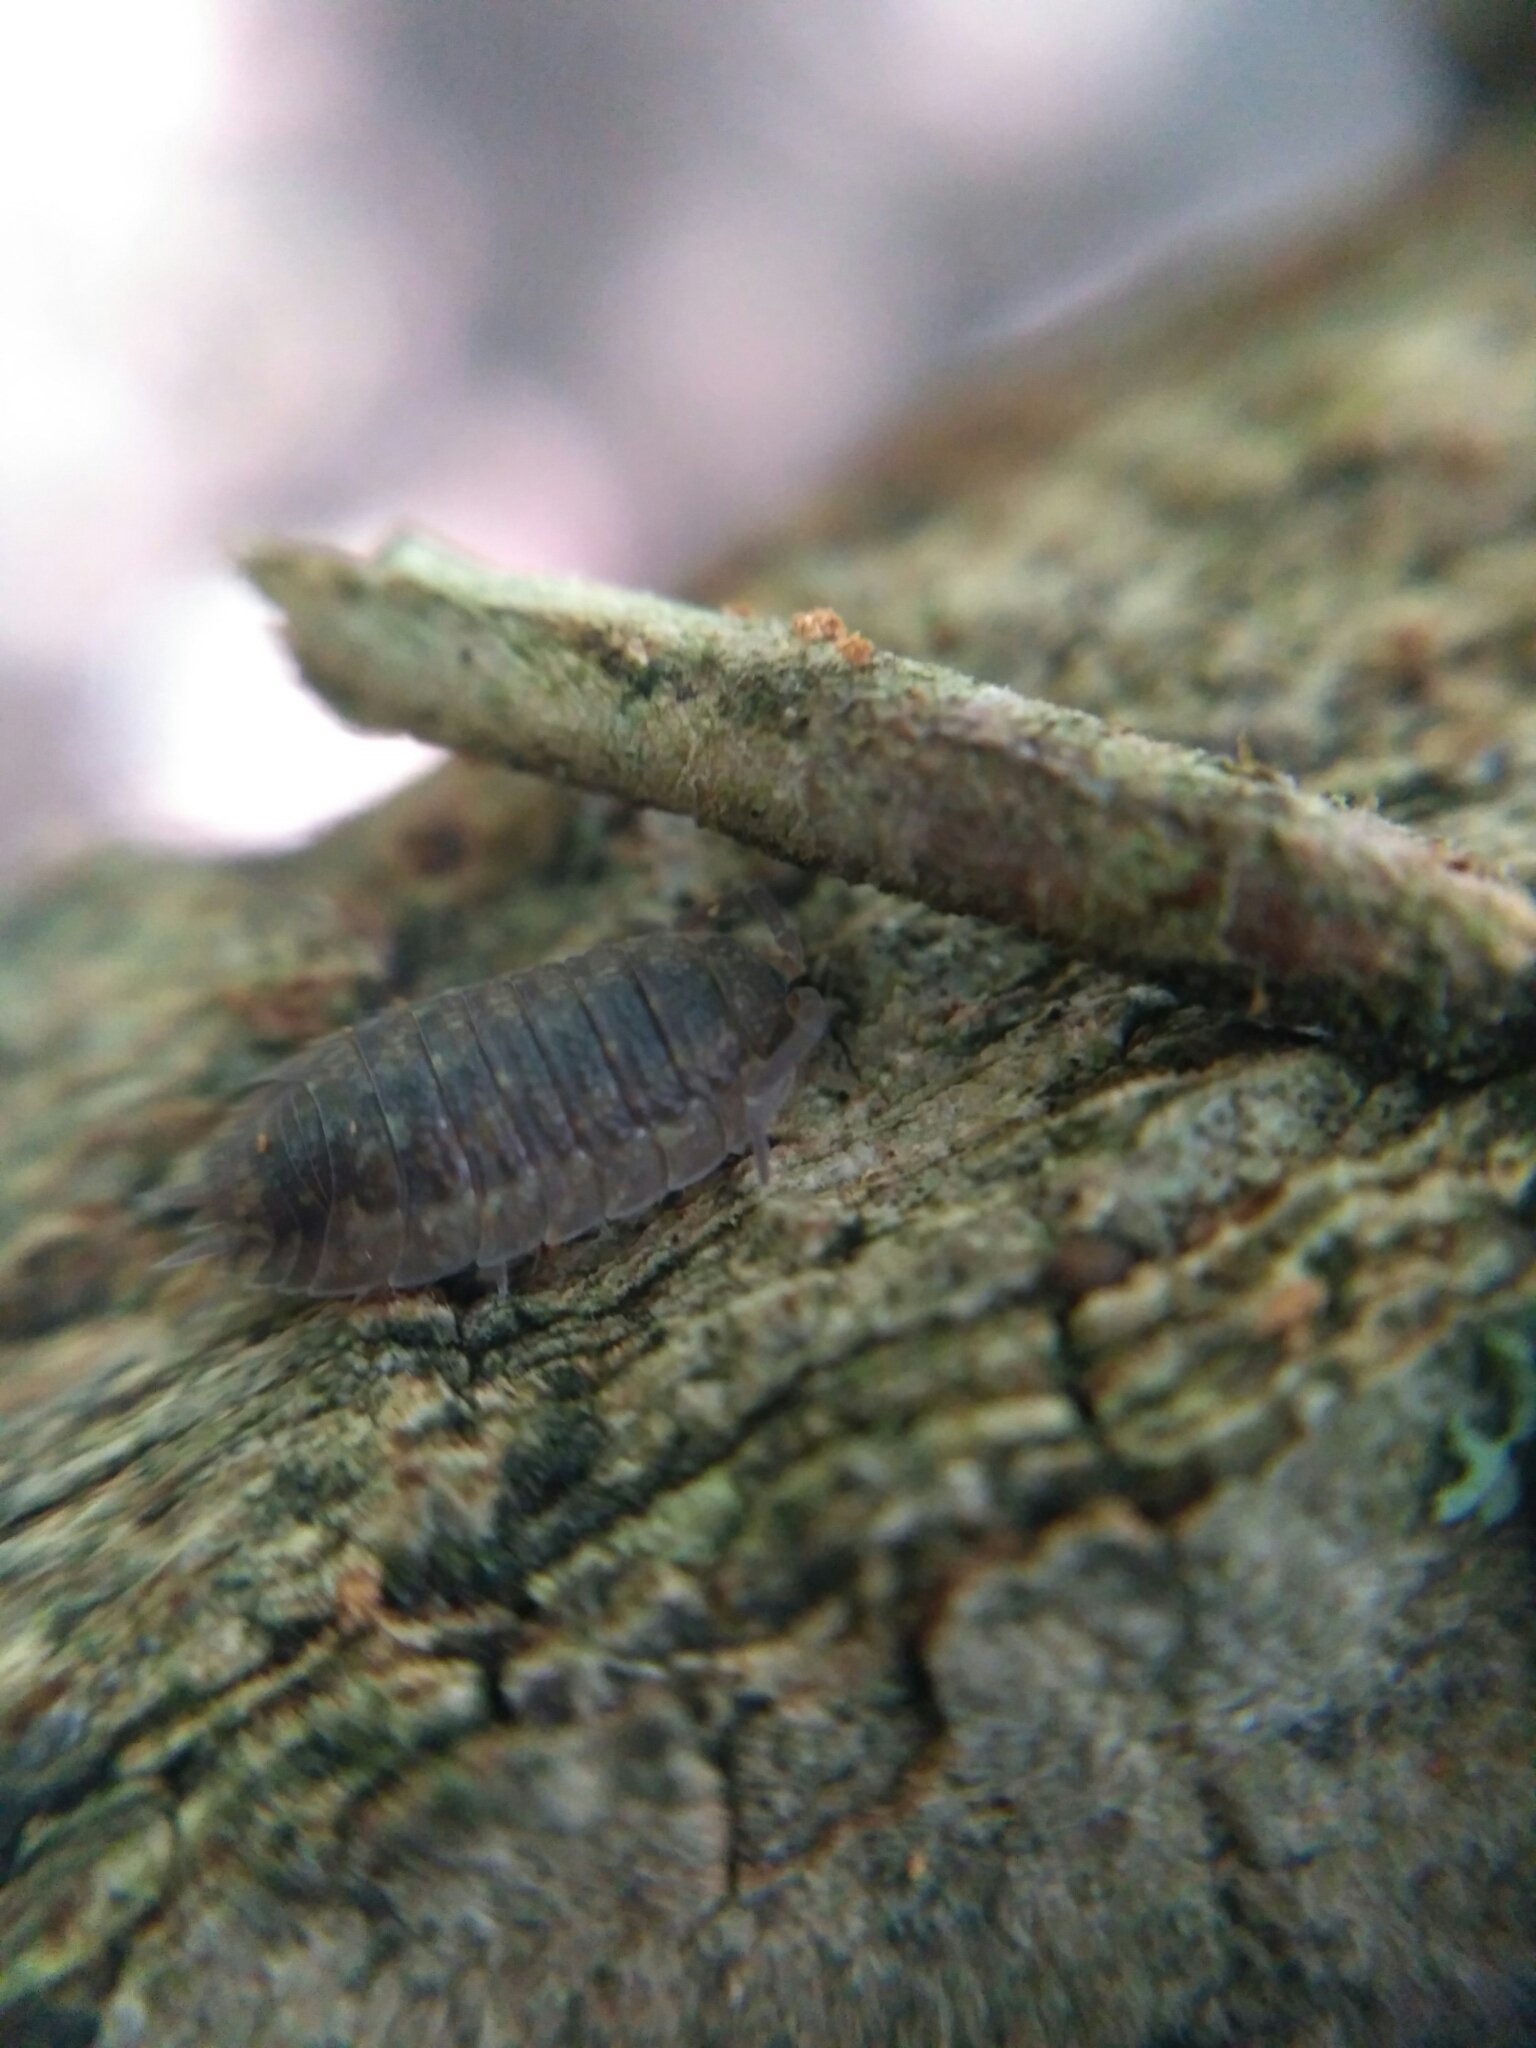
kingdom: Animalia
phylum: Arthropoda
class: Malacostraca
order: Isopoda
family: Porcellionidae
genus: Porcellio
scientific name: Porcellio scaber
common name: Common rough woodlouse
